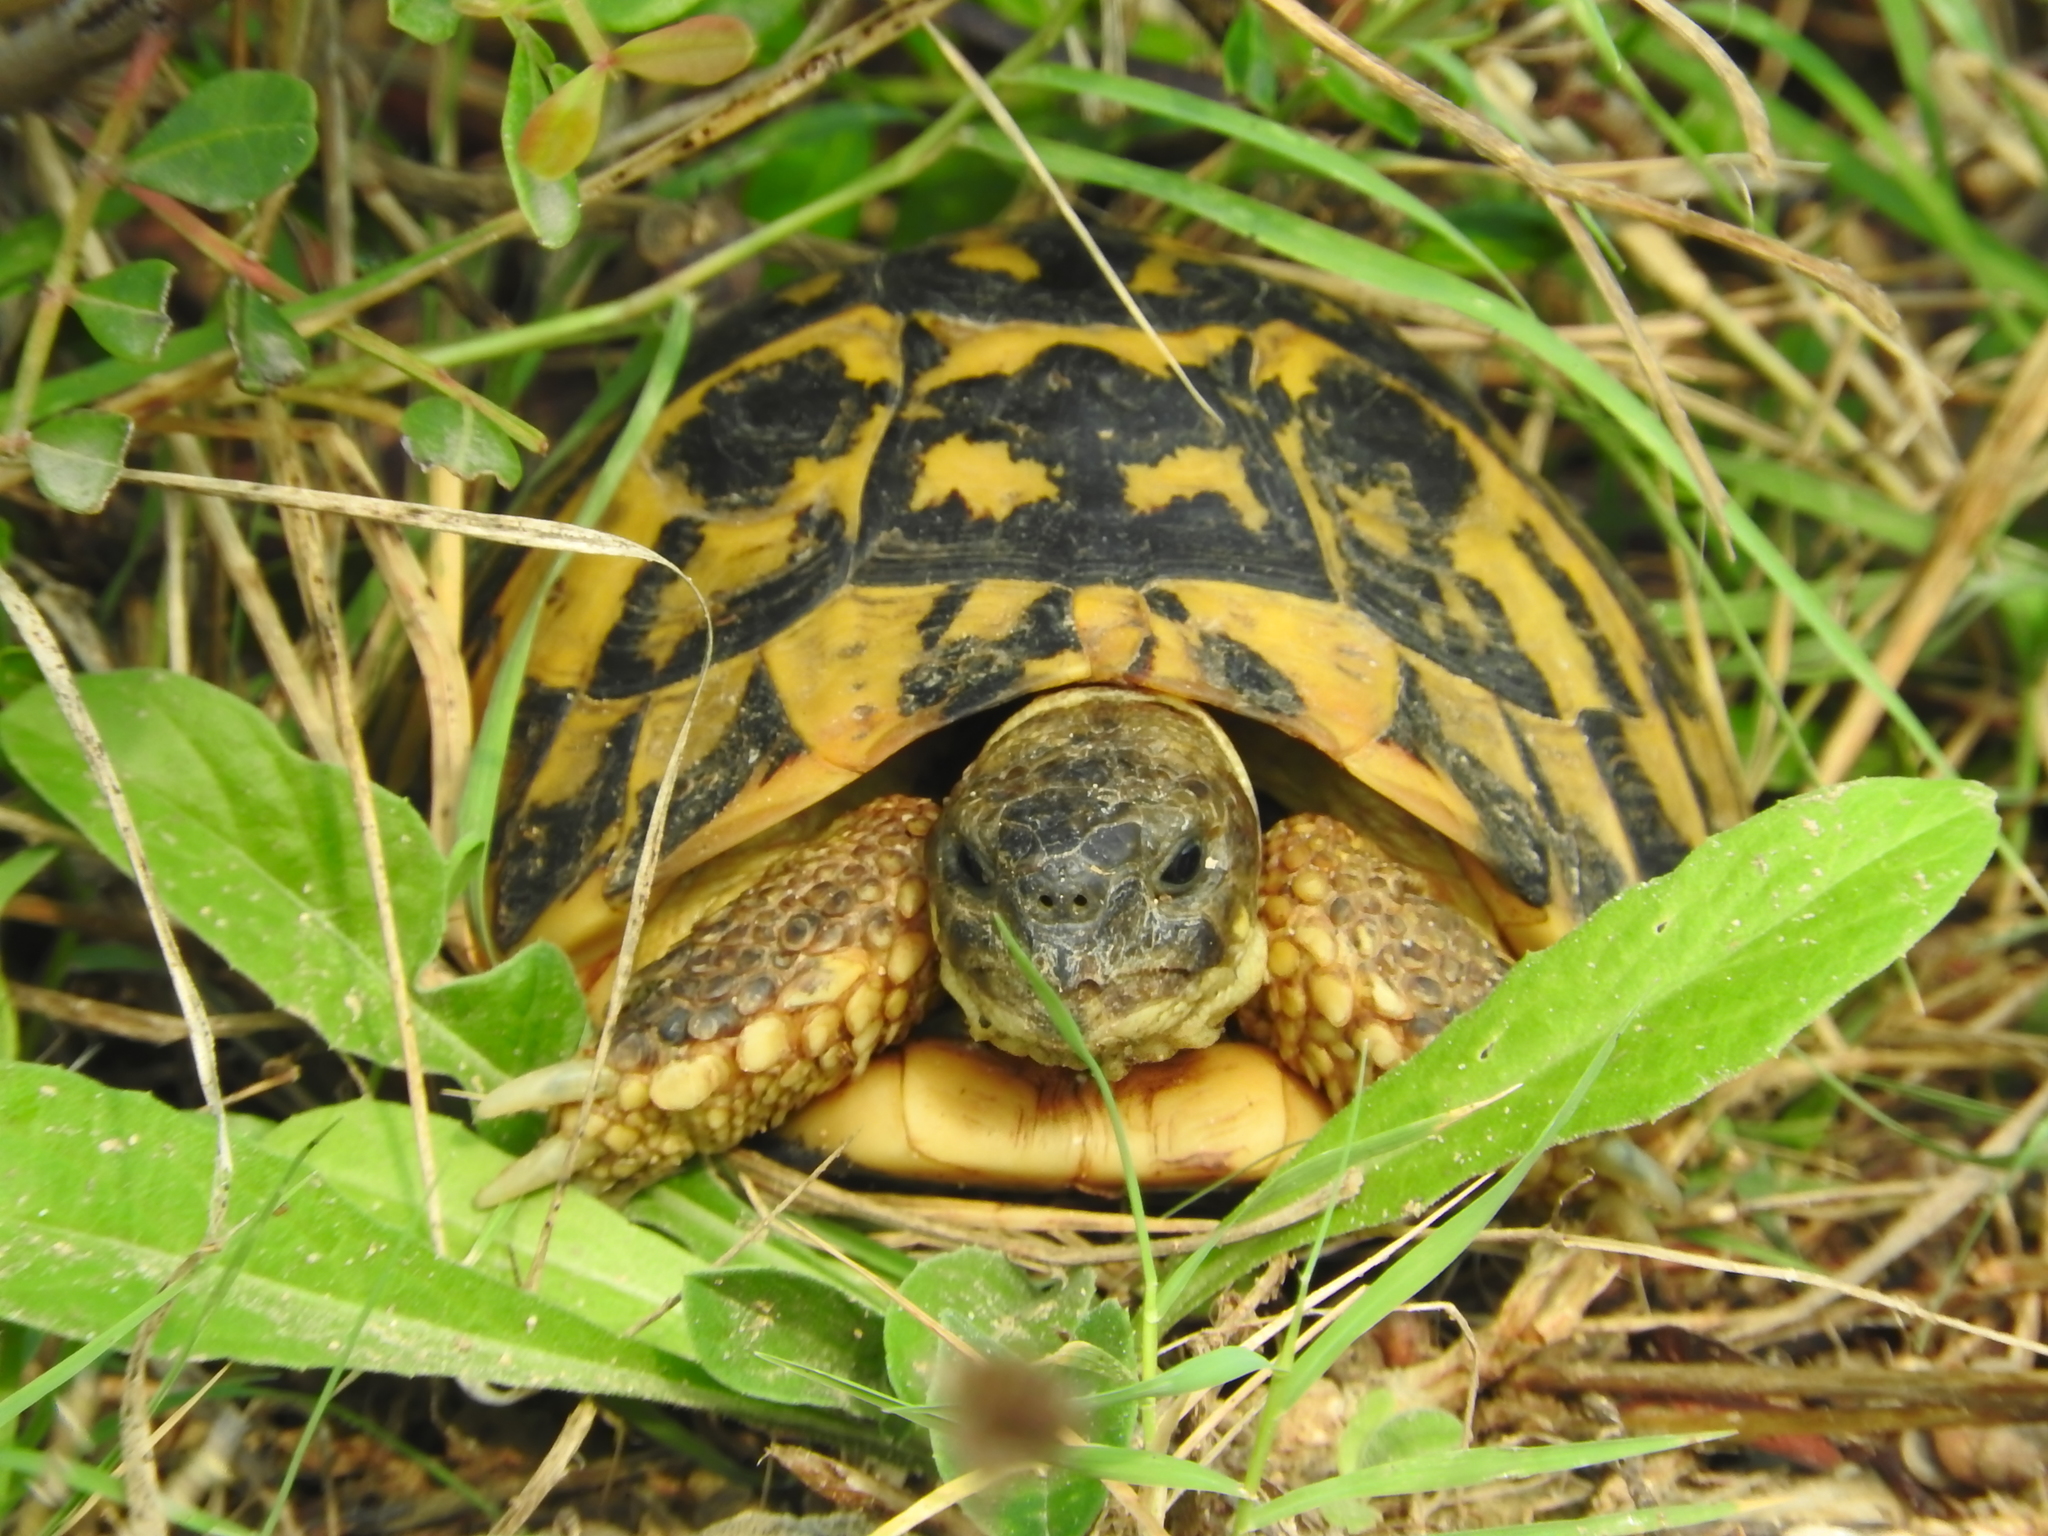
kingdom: Animalia
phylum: Chordata
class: Testudines
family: Testudinidae
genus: Testudo
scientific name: Testudo hermanni
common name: Hermann's tortoise
